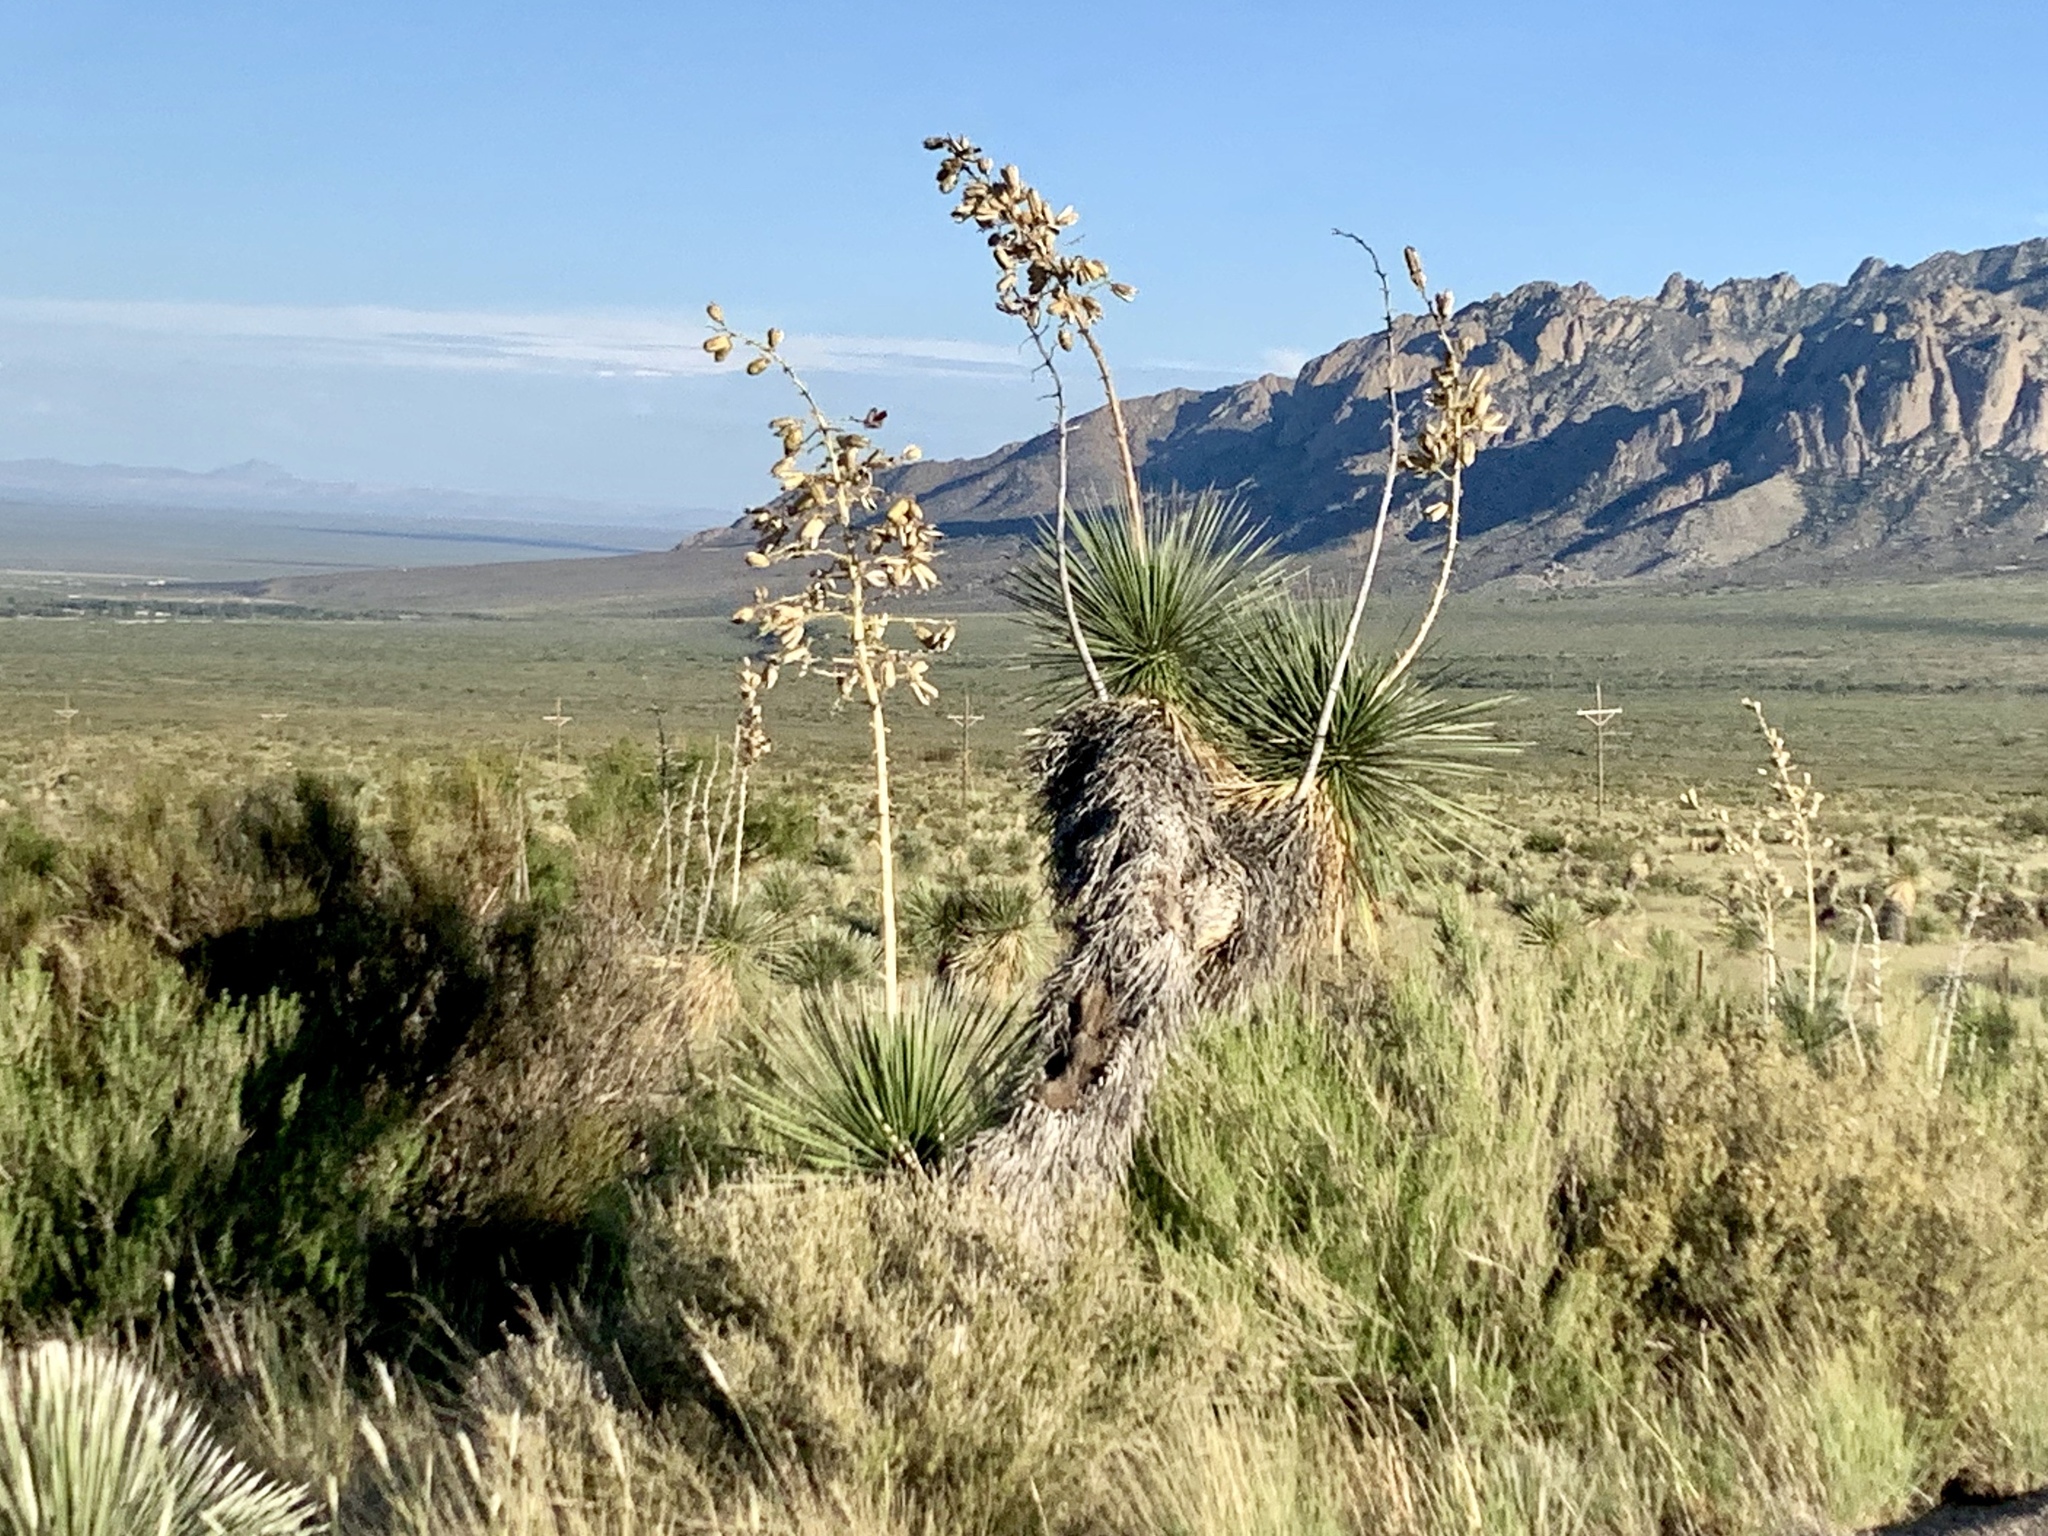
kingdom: Plantae
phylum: Tracheophyta
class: Liliopsida
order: Asparagales
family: Asparagaceae
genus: Yucca
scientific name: Yucca elata
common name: Palmella
